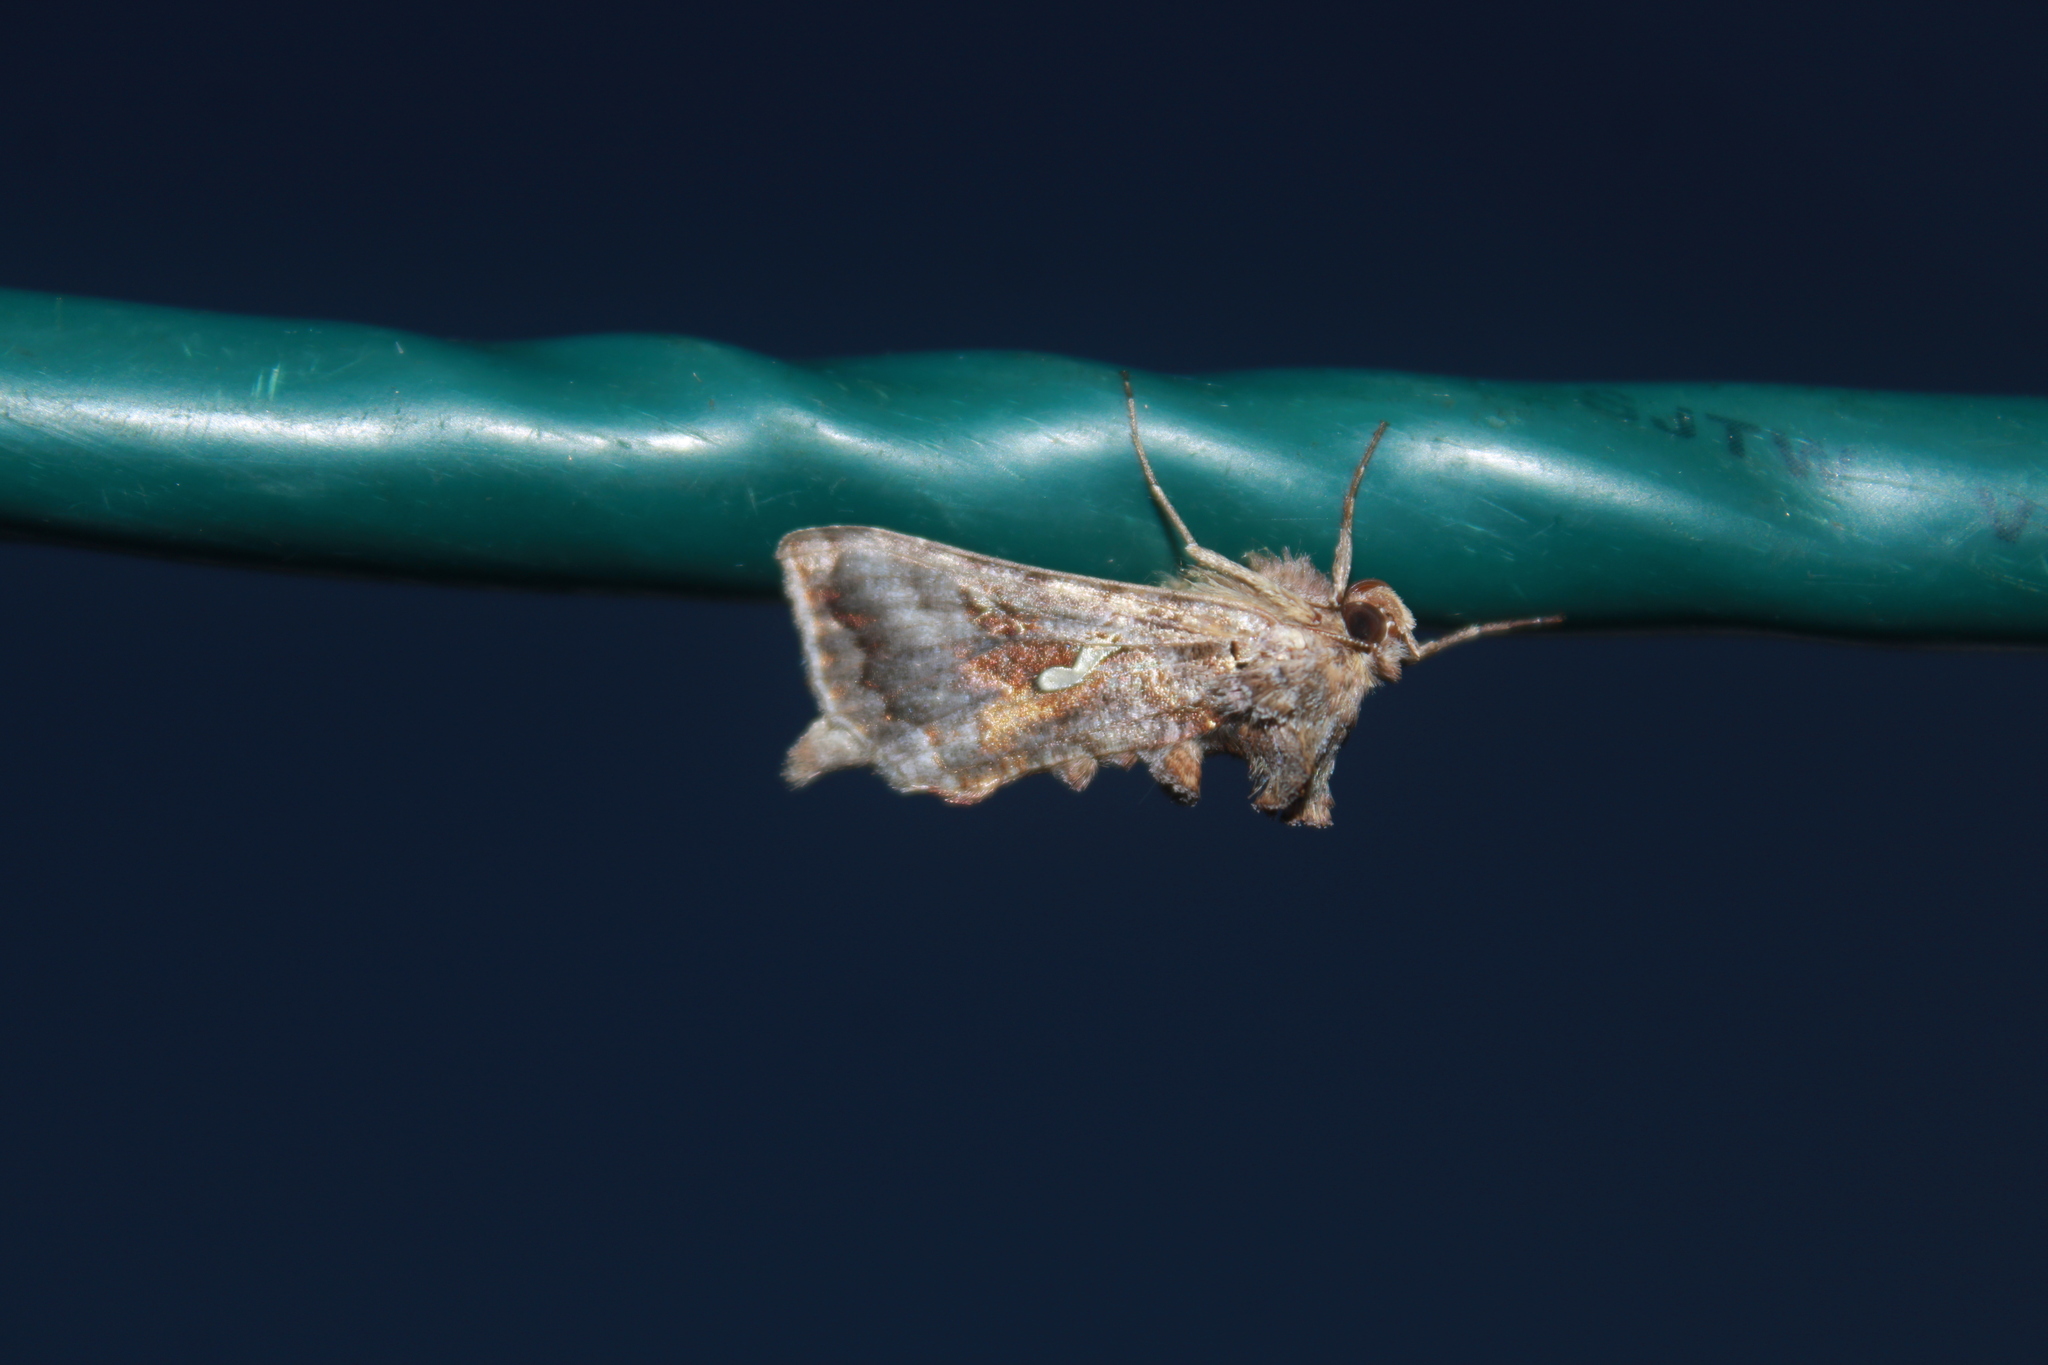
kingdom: Animalia
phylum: Arthropoda
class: Insecta
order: Lepidoptera
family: Noctuidae
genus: Autographa
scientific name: Autographa precationis
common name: Common looper moth
